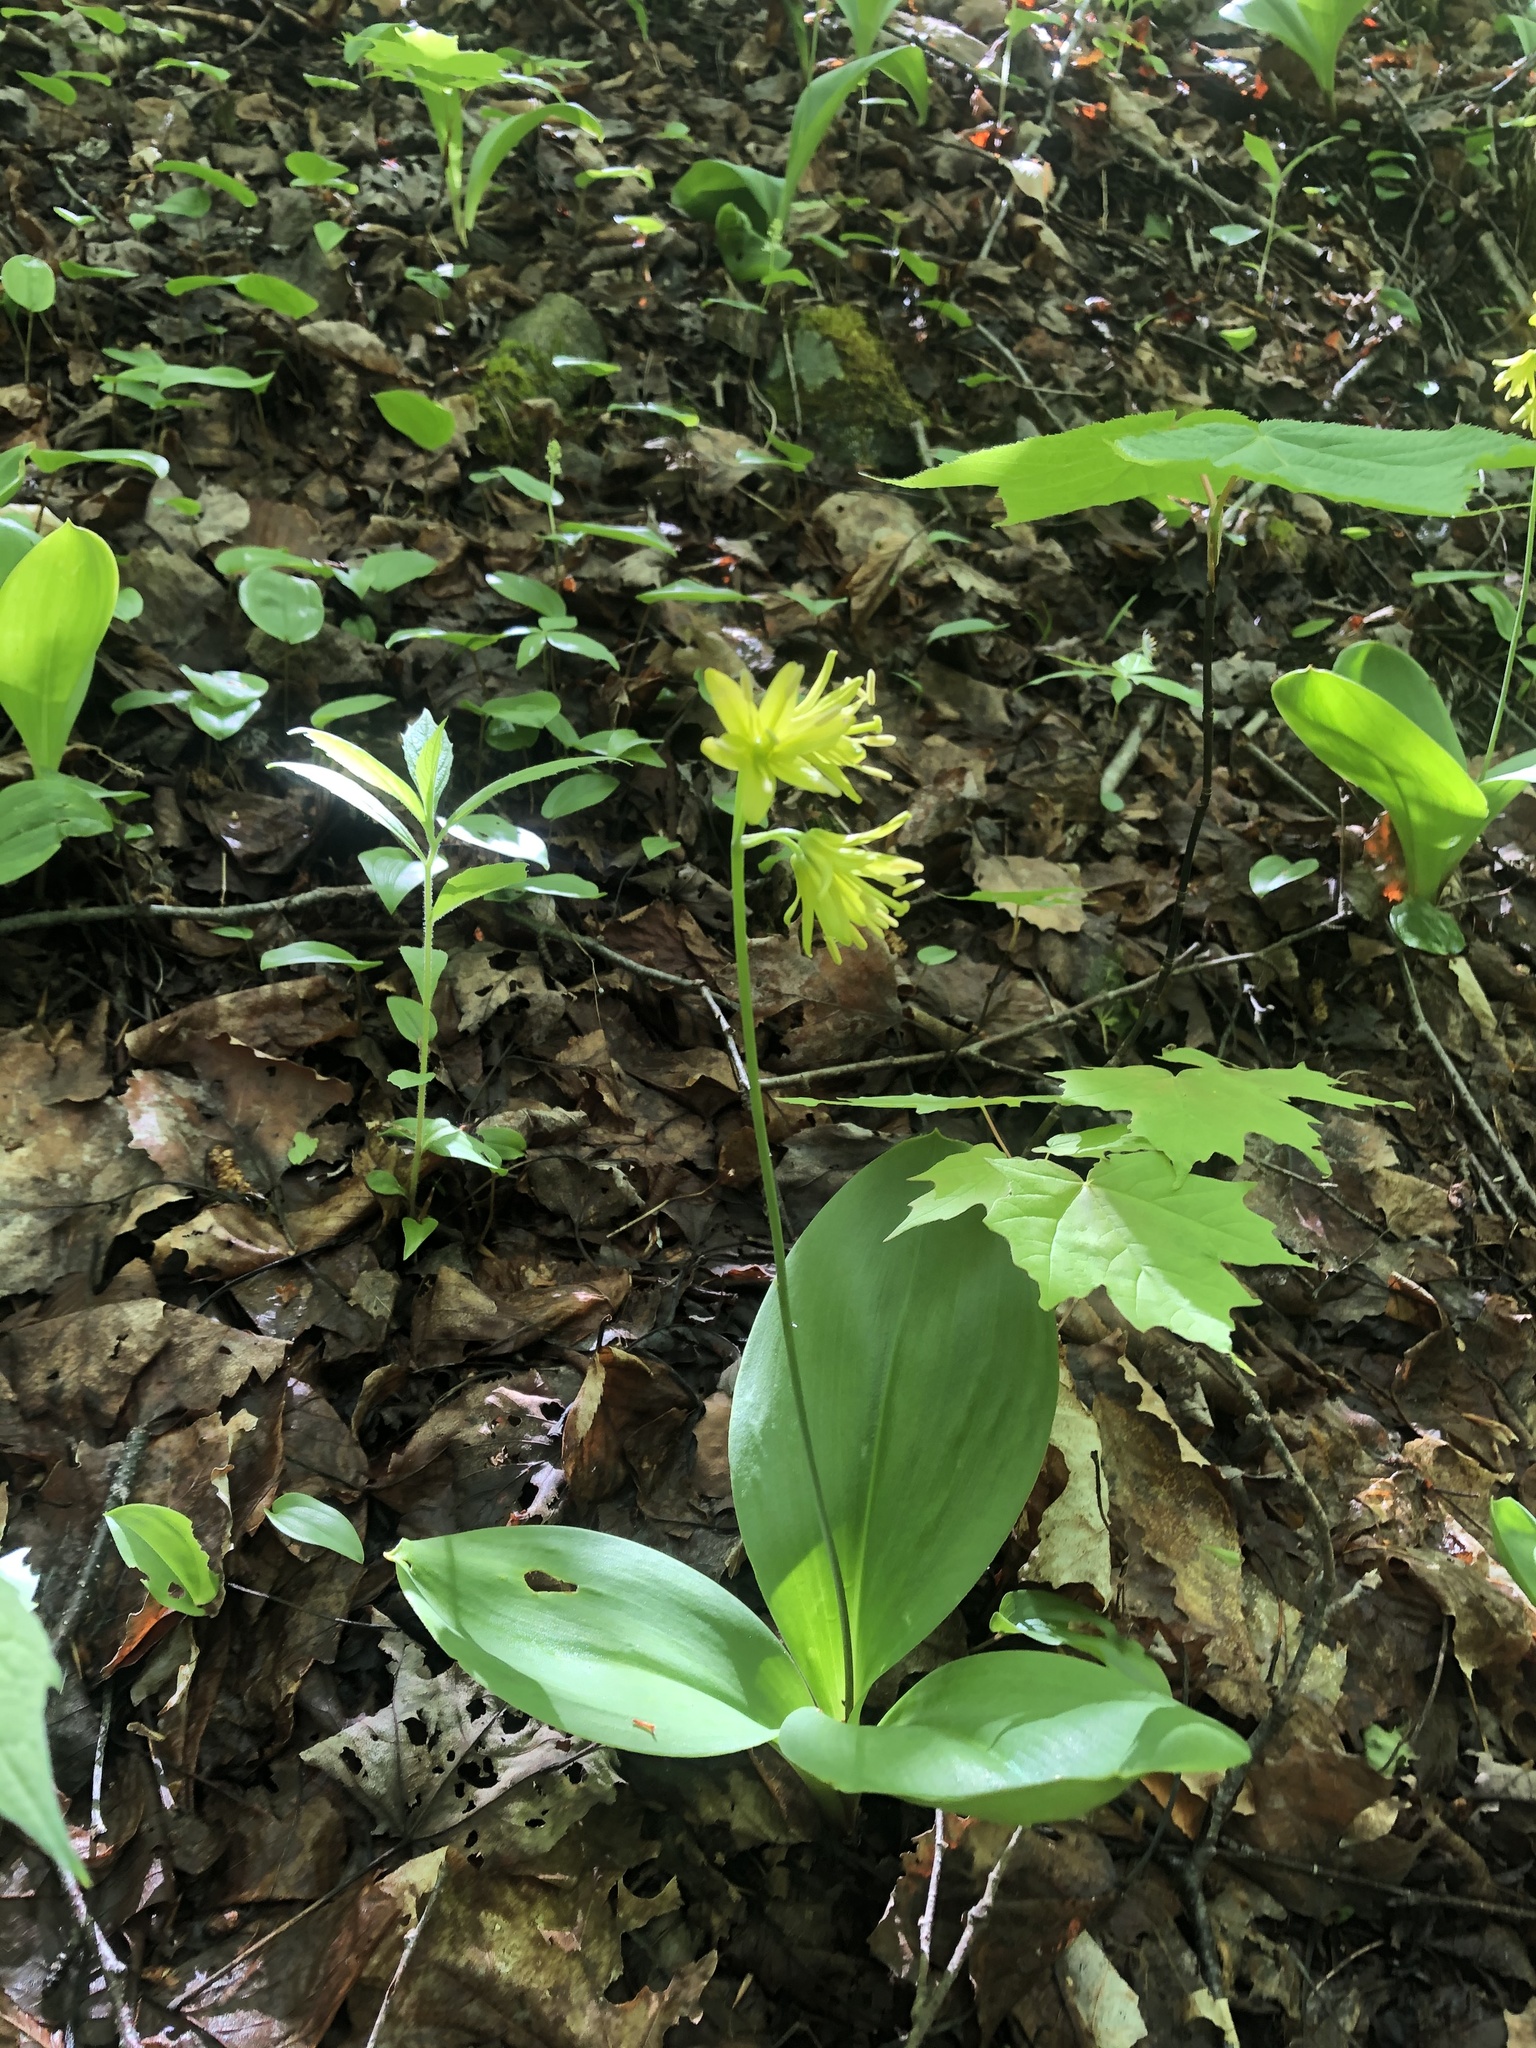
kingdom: Plantae
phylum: Tracheophyta
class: Liliopsida
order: Liliales
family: Liliaceae
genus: Clintonia
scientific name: Clintonia borealis
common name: Yellow clintonia
